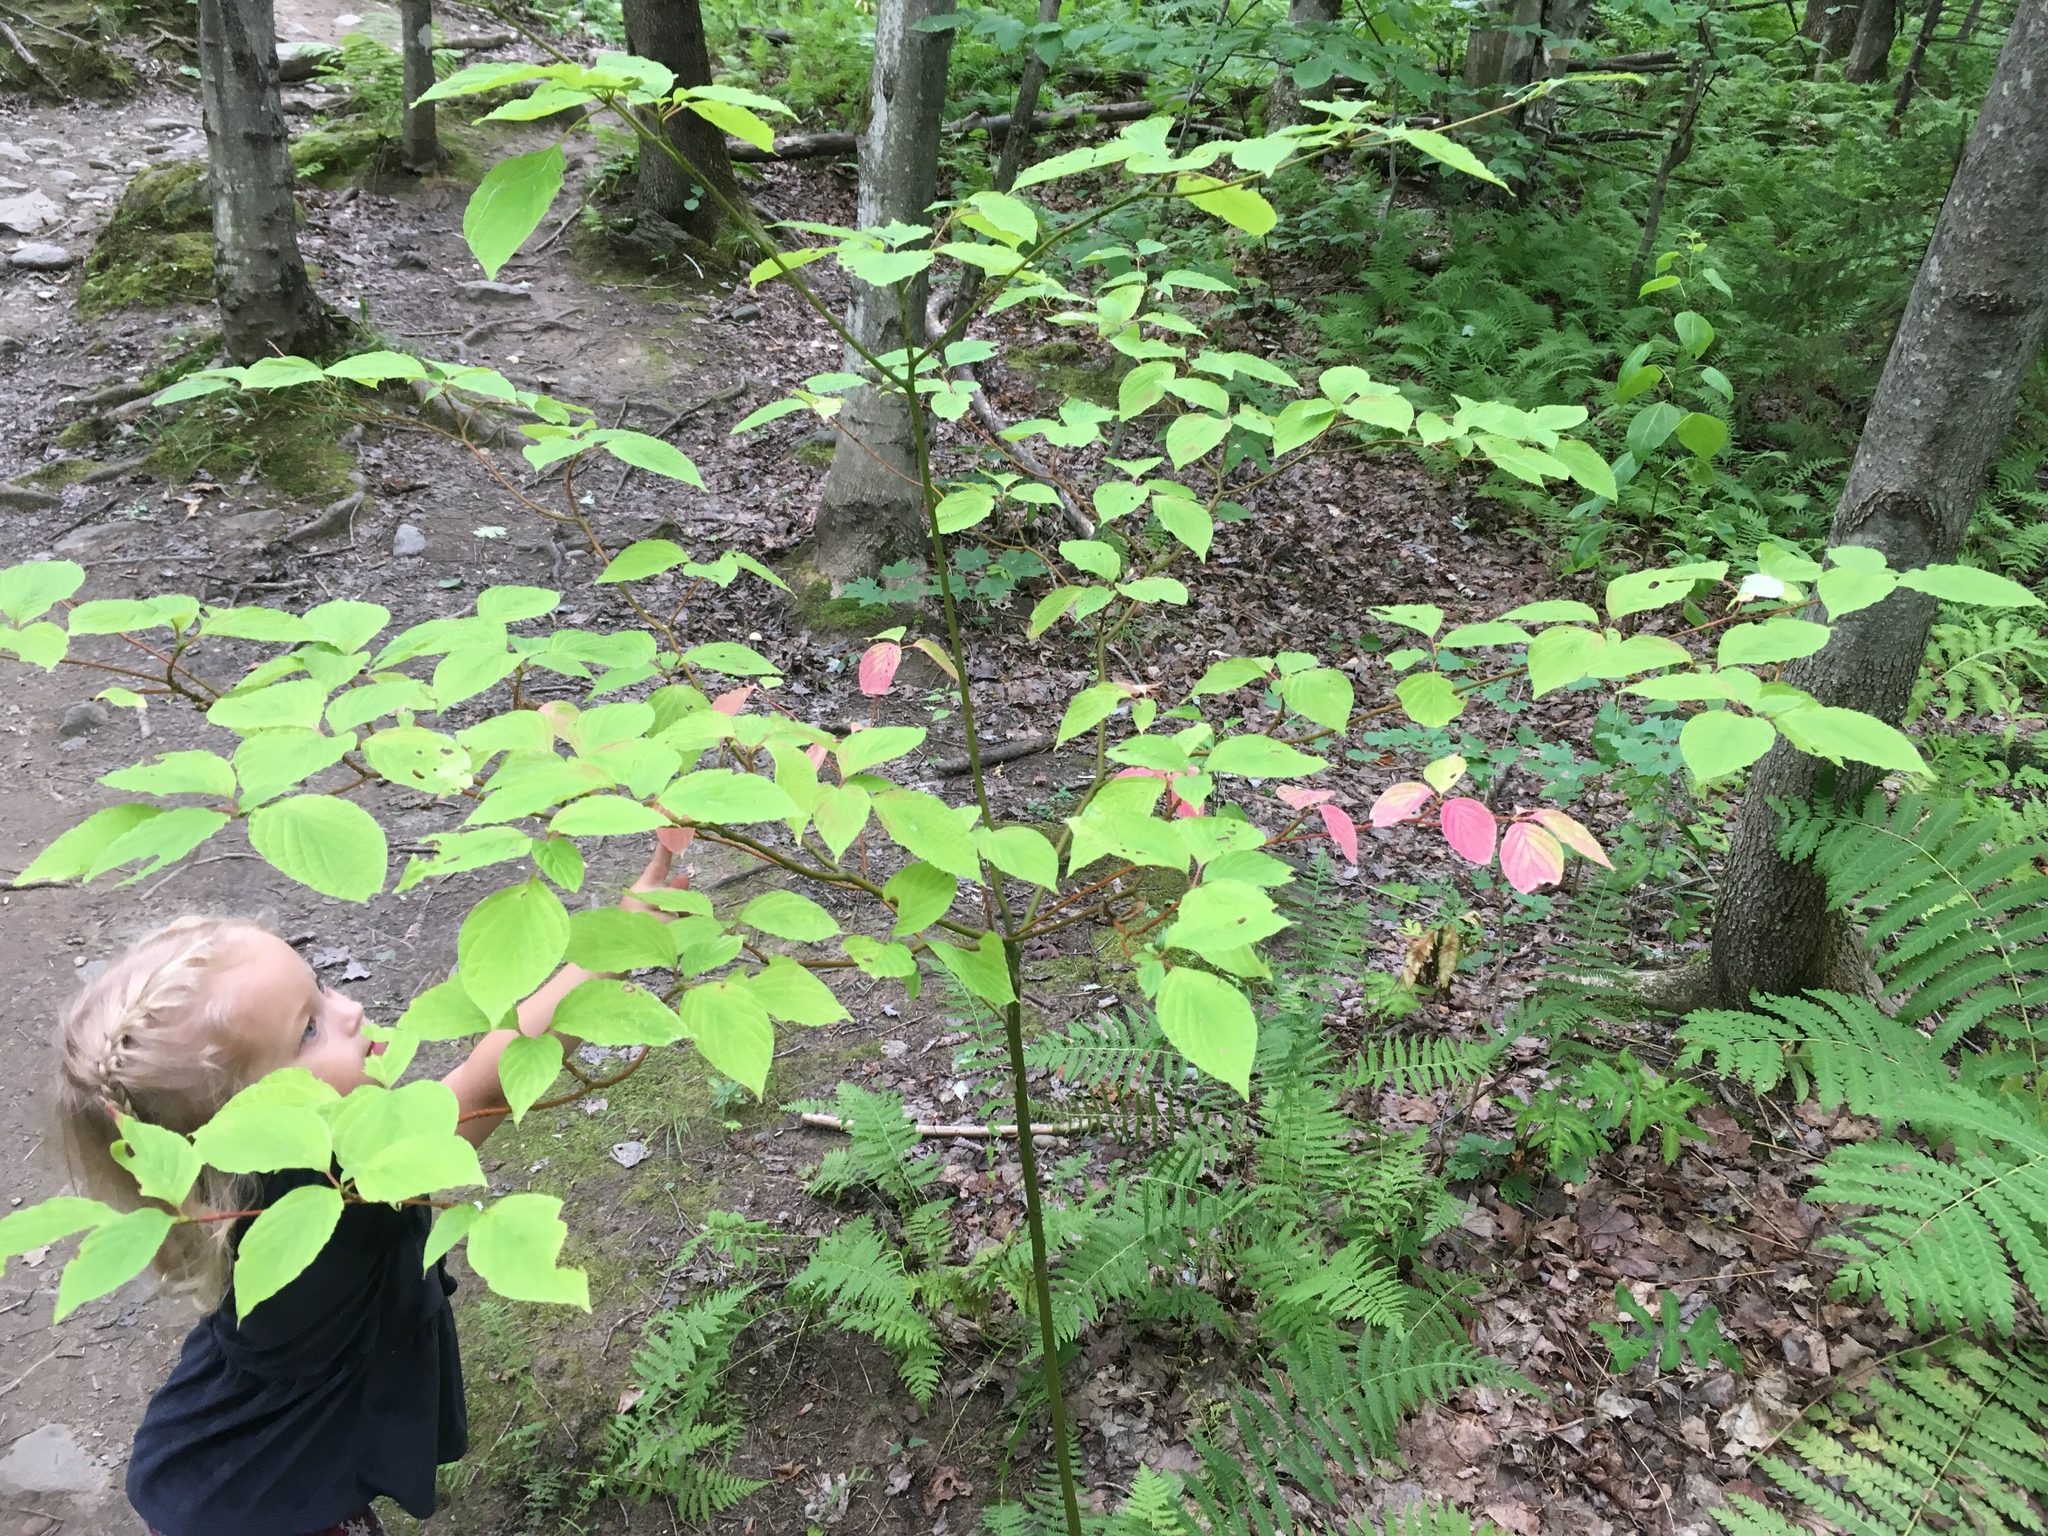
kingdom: Plantae
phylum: Tracheophyta
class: Magnoliopsida
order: Cornales
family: Cornaceae
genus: Cornus
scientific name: Cornus alternifolia
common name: Pagoda dogwood
